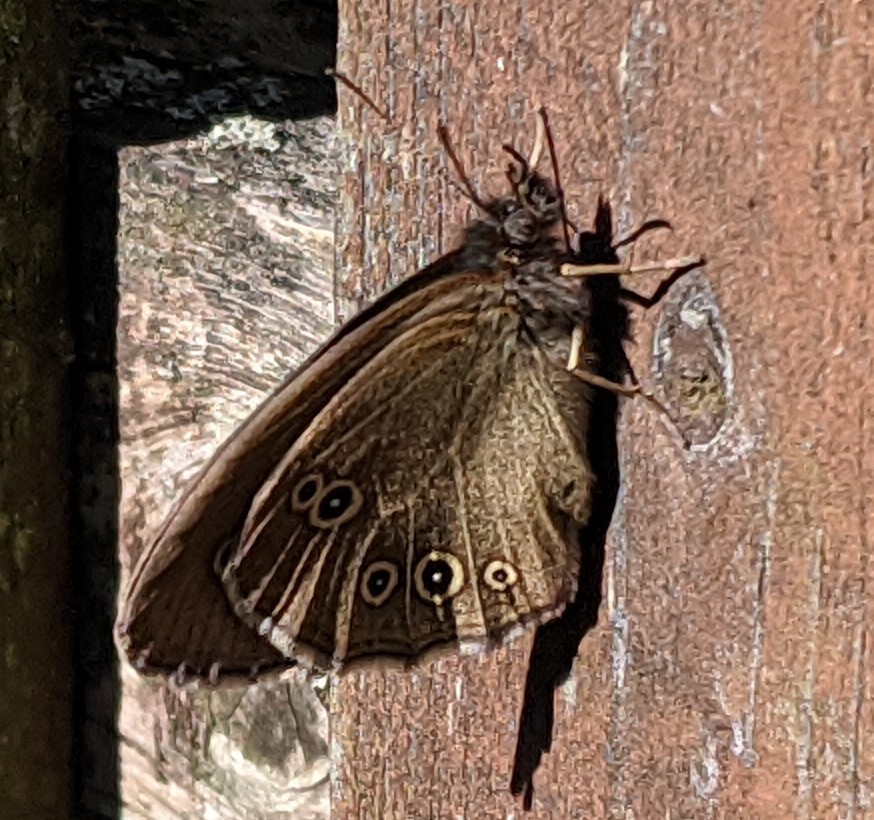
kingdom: Animalia
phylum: Arthropoda
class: Insecta
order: Lepidoptera
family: Nymphalidae
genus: Aphantopus
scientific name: Aphantopus hyperantus
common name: Ringlet
